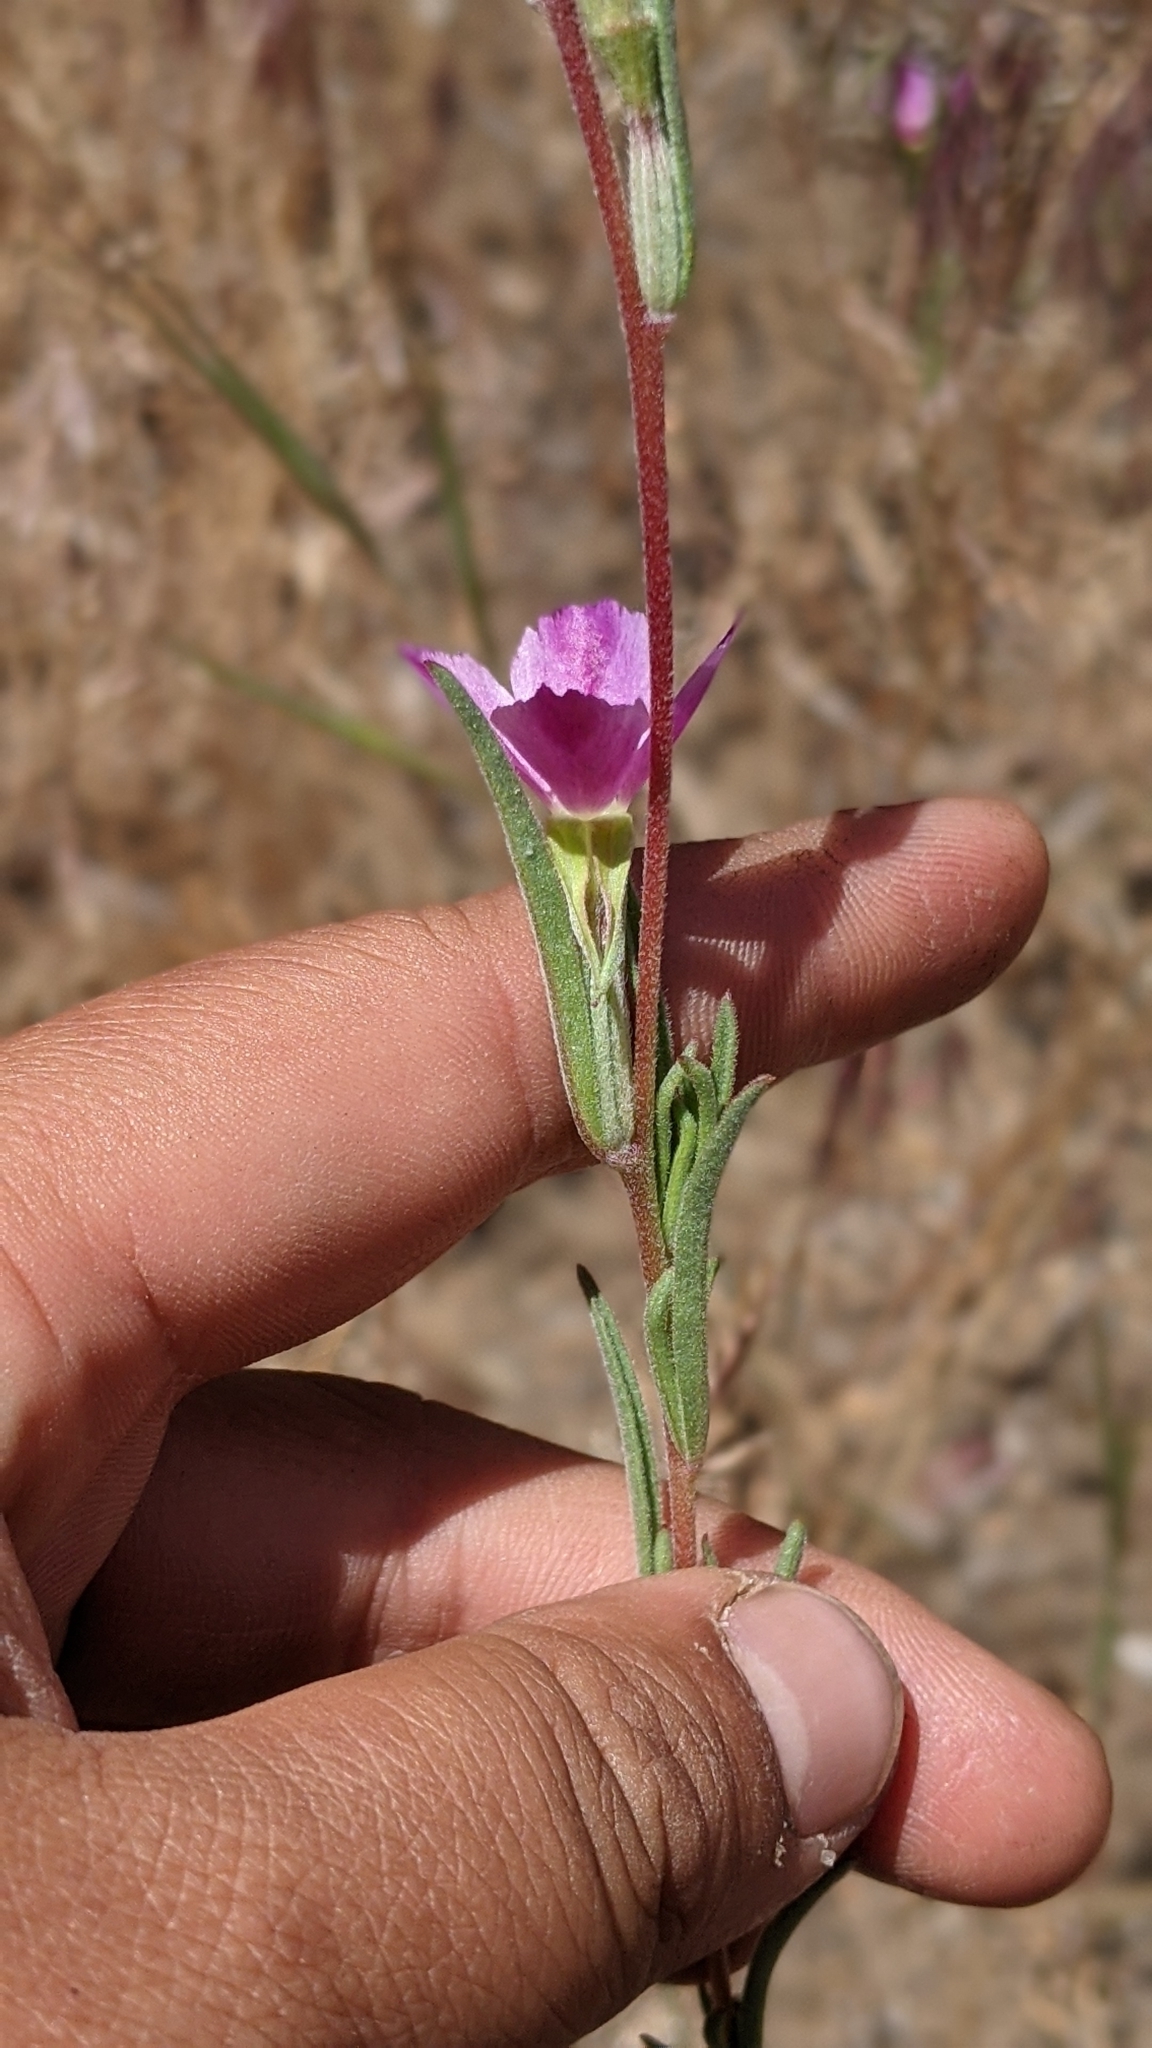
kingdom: Plantae
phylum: Tracheophyta
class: Magnoliopsida
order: Myrtales
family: Onagraceae
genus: Clarkia
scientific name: Clarkia purpurea
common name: Purple clarkia
